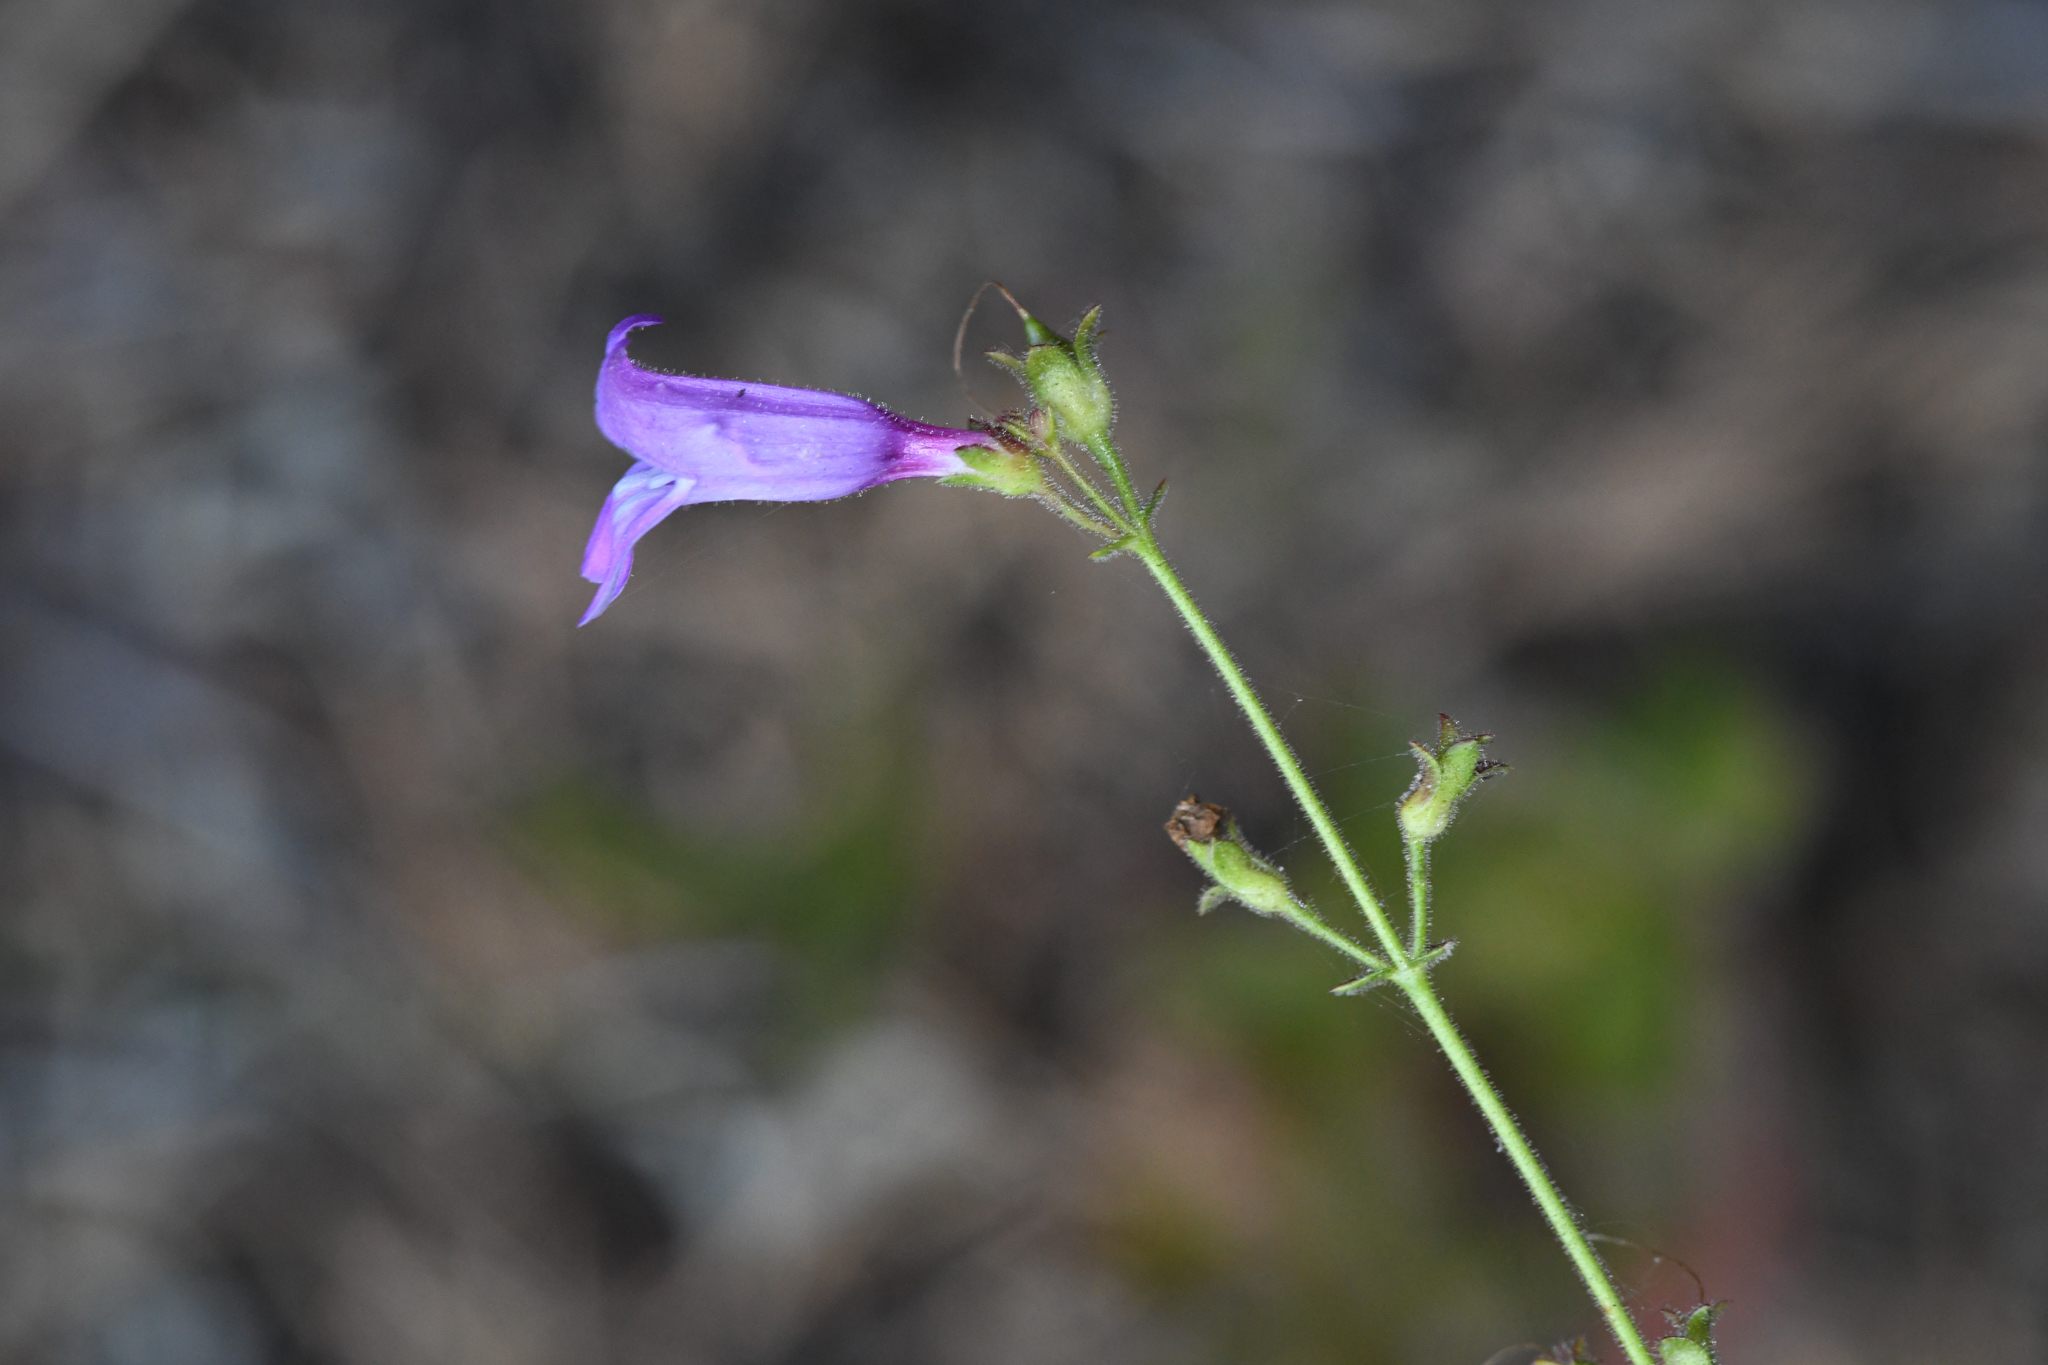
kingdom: Plantae
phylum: Tracheophyta
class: Magnoliopsida
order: Lamiales
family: Plantaginaceae
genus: Penstemon
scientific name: Penstemon laetus
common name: Gay penstemon
